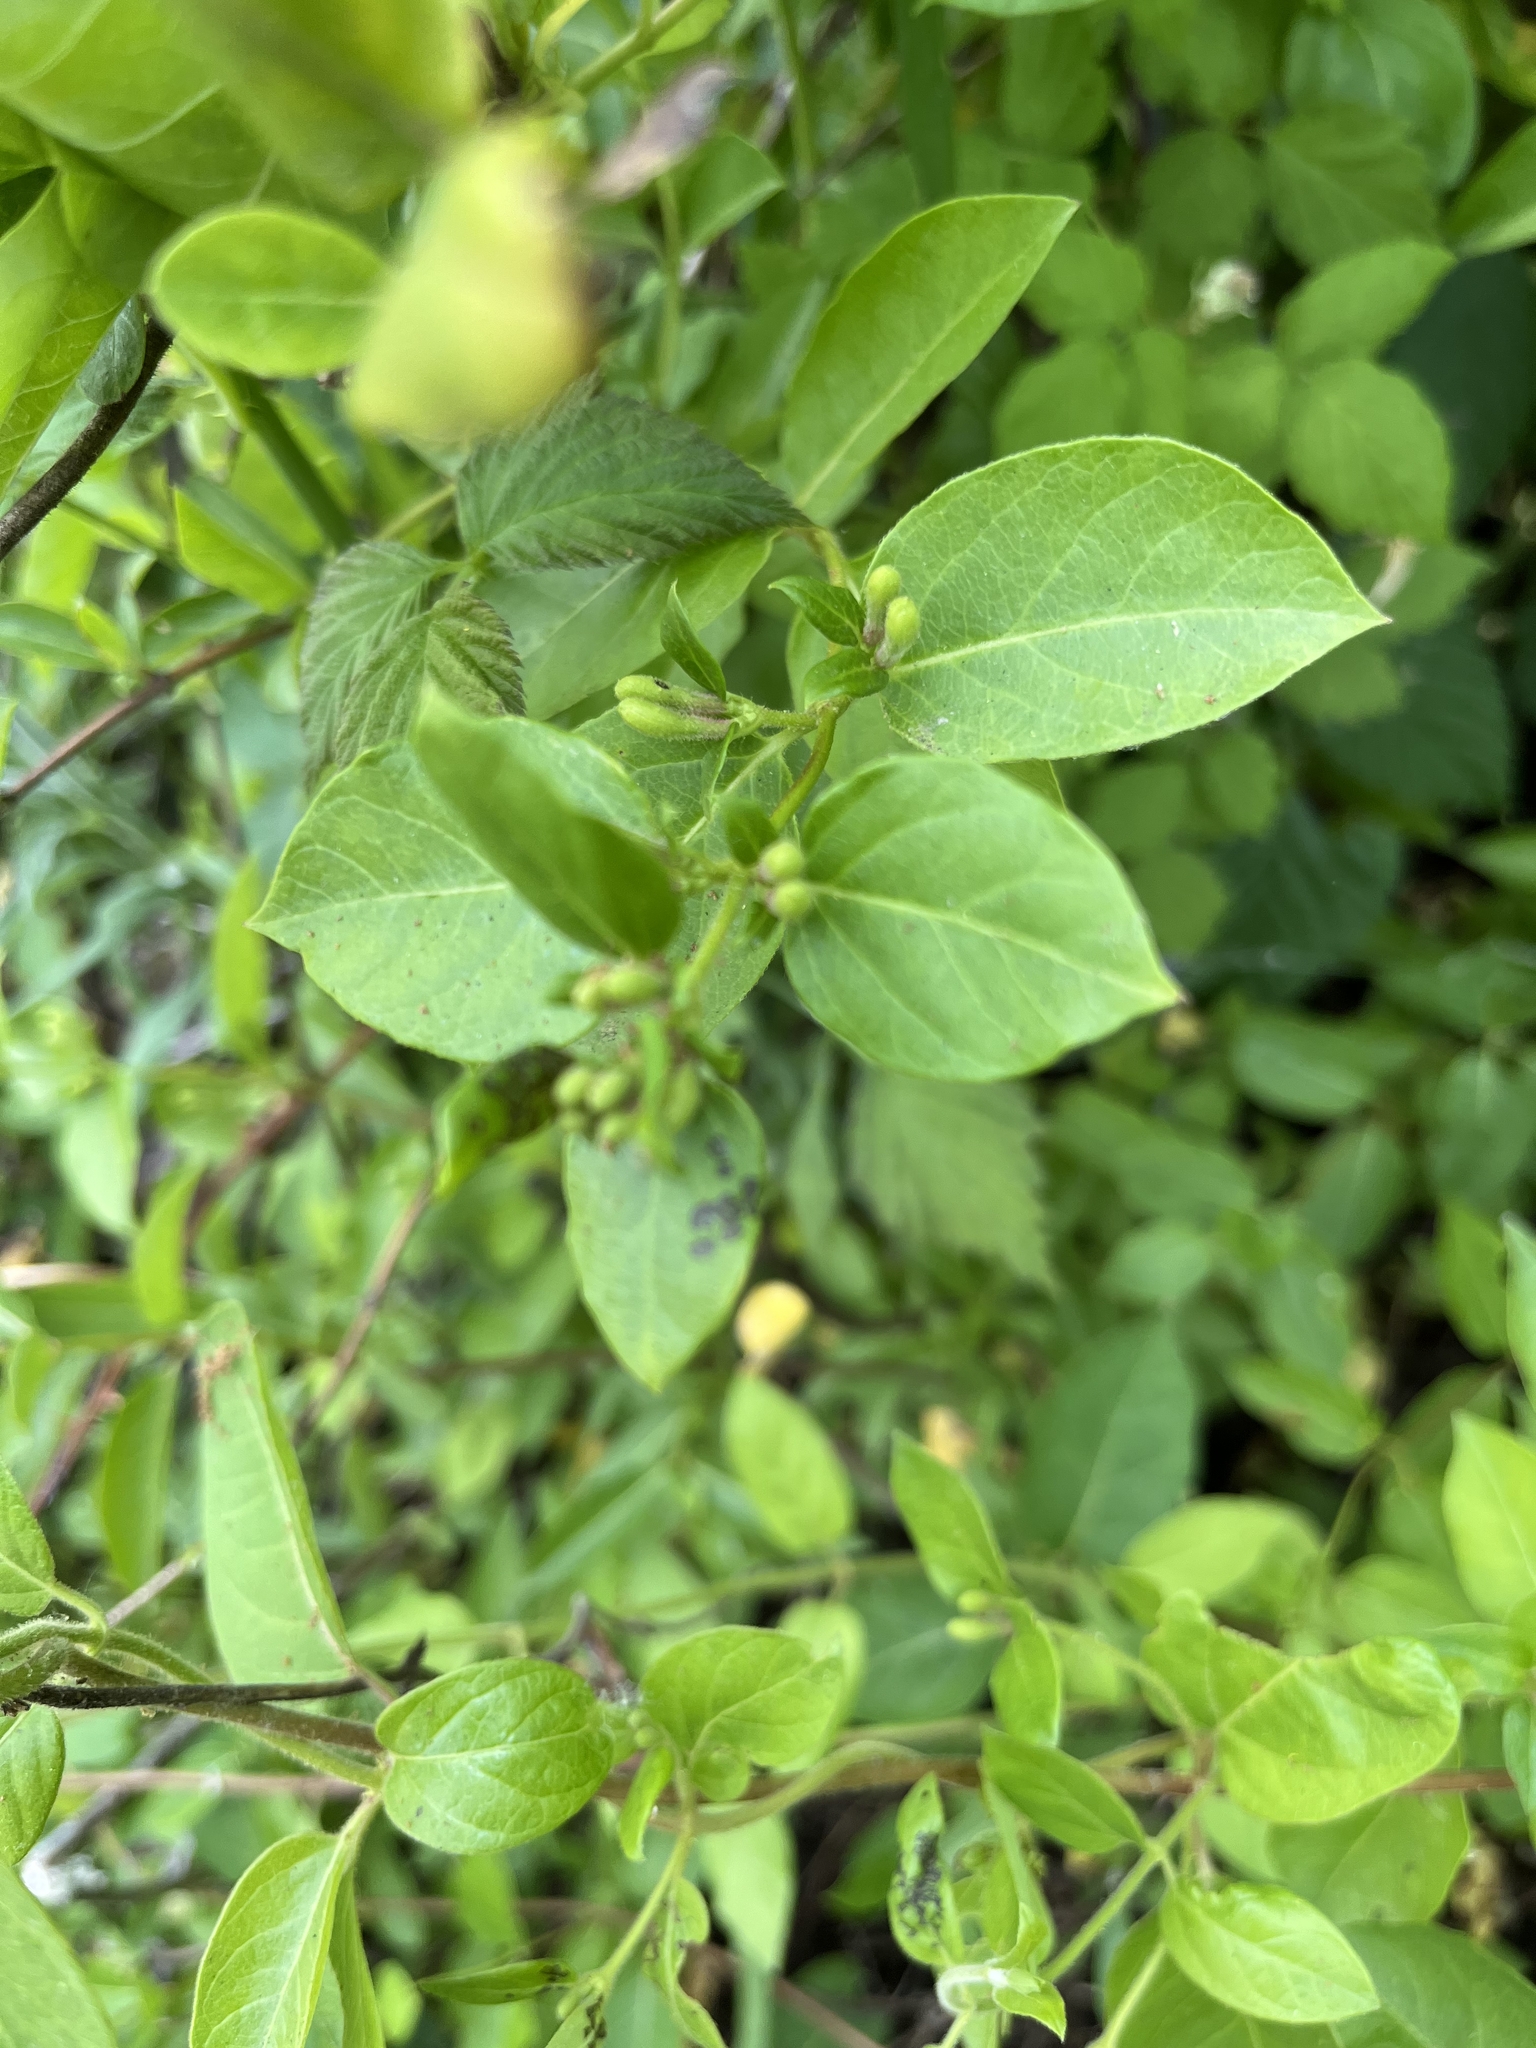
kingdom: Plantae
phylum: Tracheophyta
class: Magnoliopsida
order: Dipsacales
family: Caprifoliaceae
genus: Lonicera
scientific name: Lonicera japonica
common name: Japanese honeysuckle
